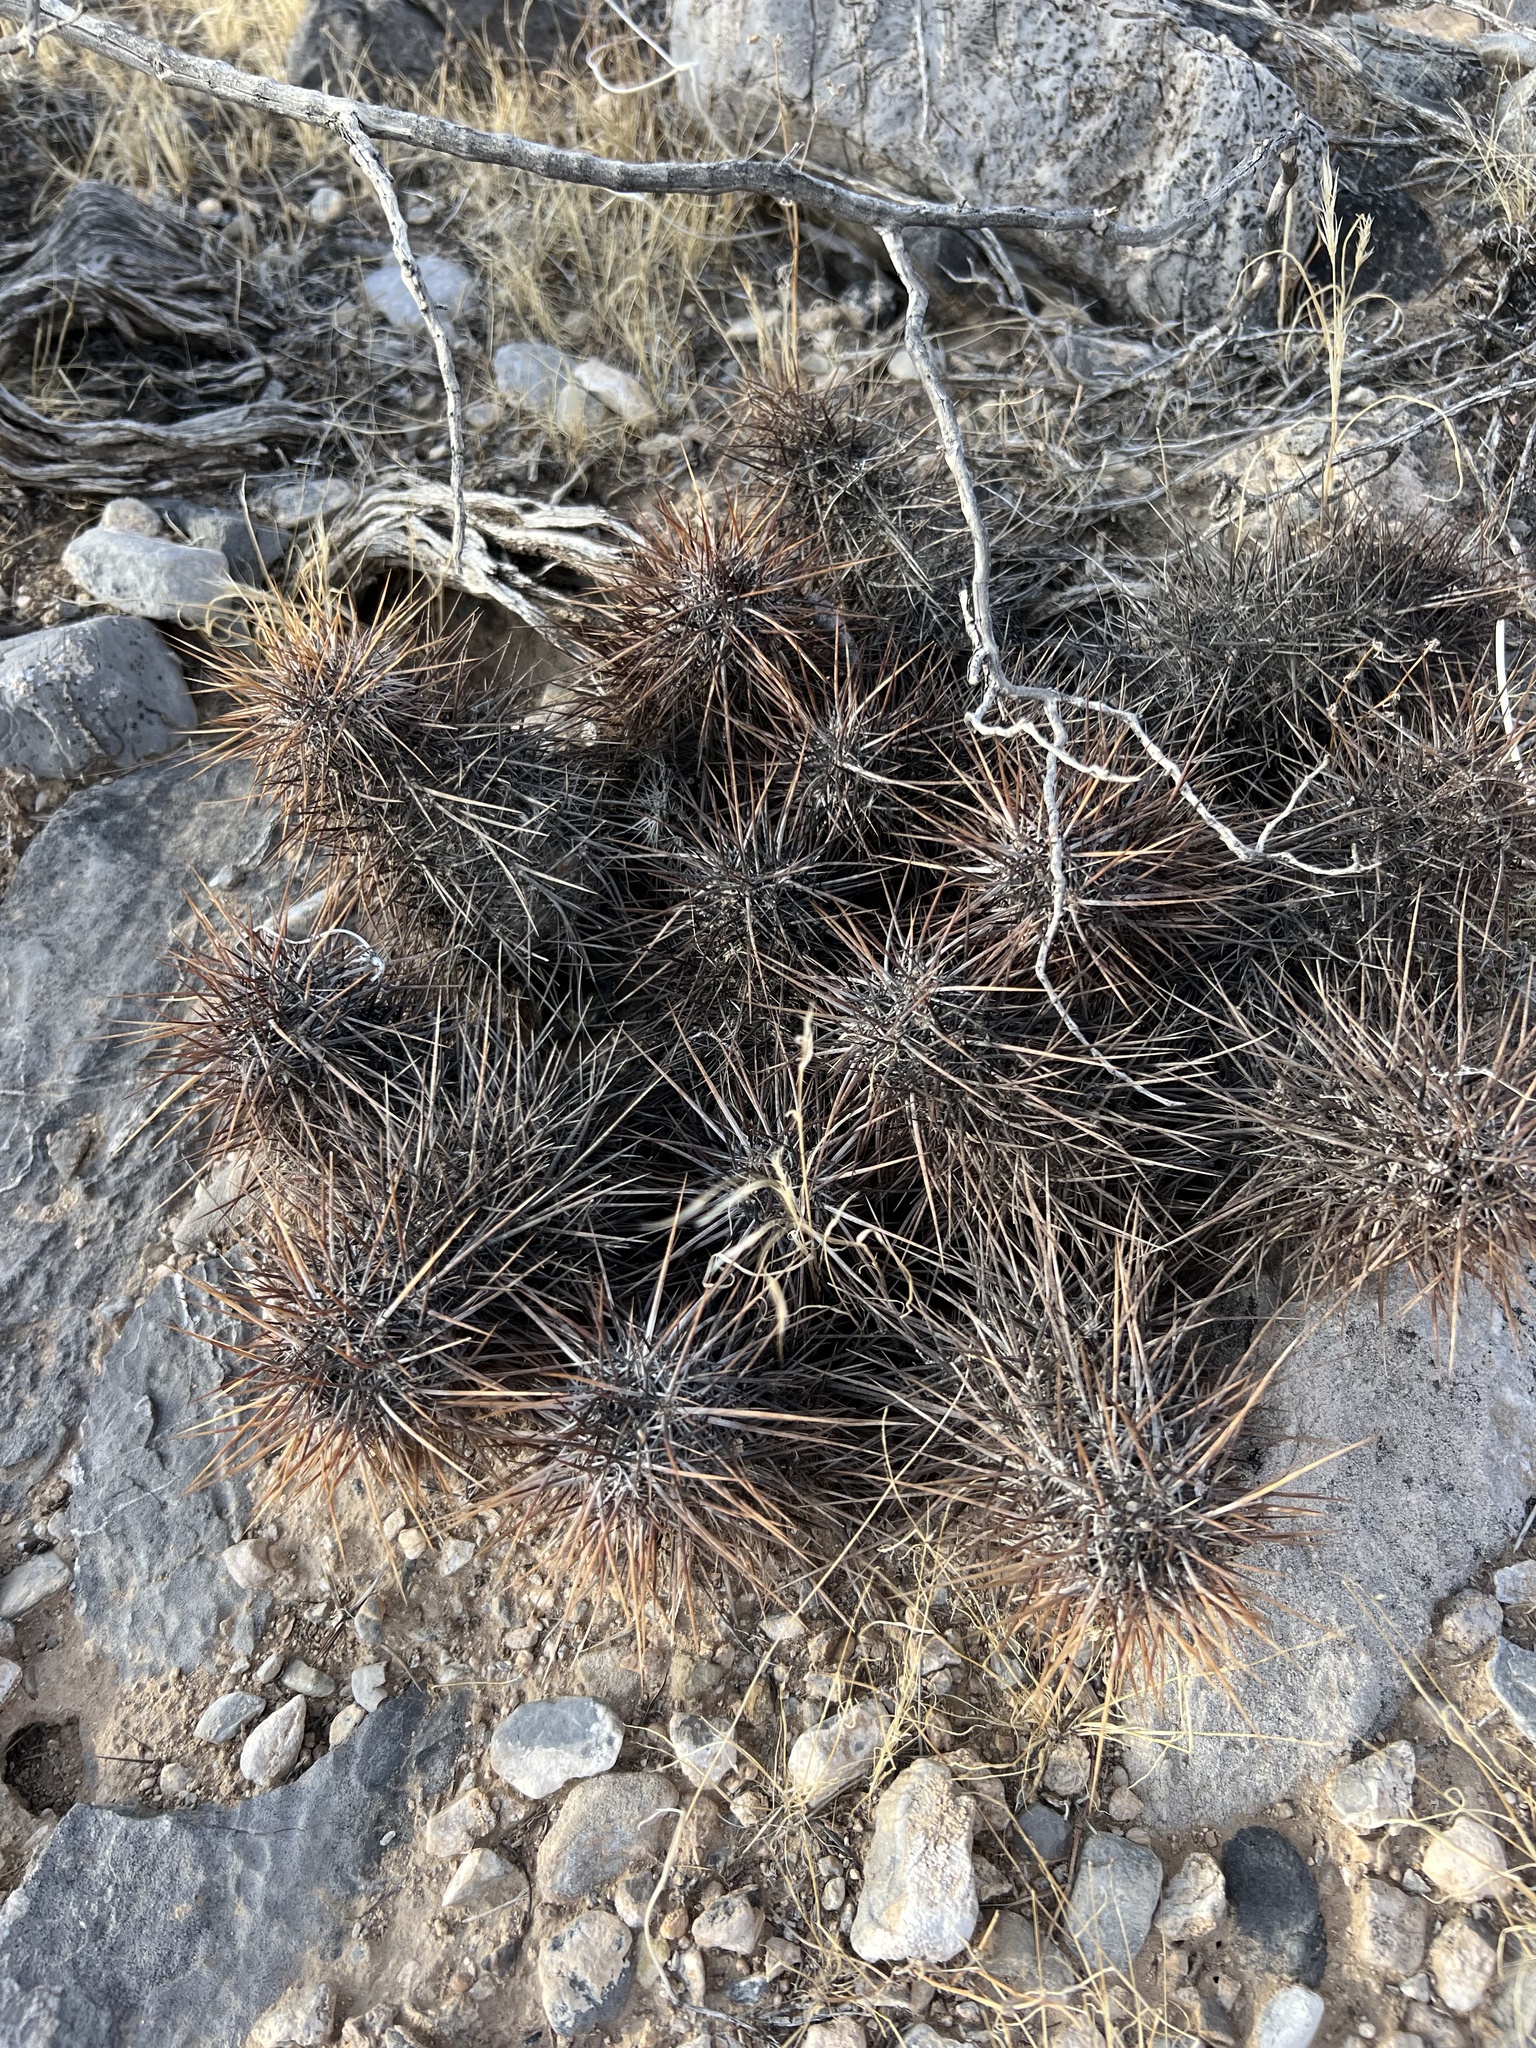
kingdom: Plantae
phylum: Tracheophyta
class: Magnoliopsida
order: Caryophyllales
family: Cactaceae
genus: Echinocereus
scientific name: Echinocereus engelmannii
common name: Engelmann's hedgehog cactus
